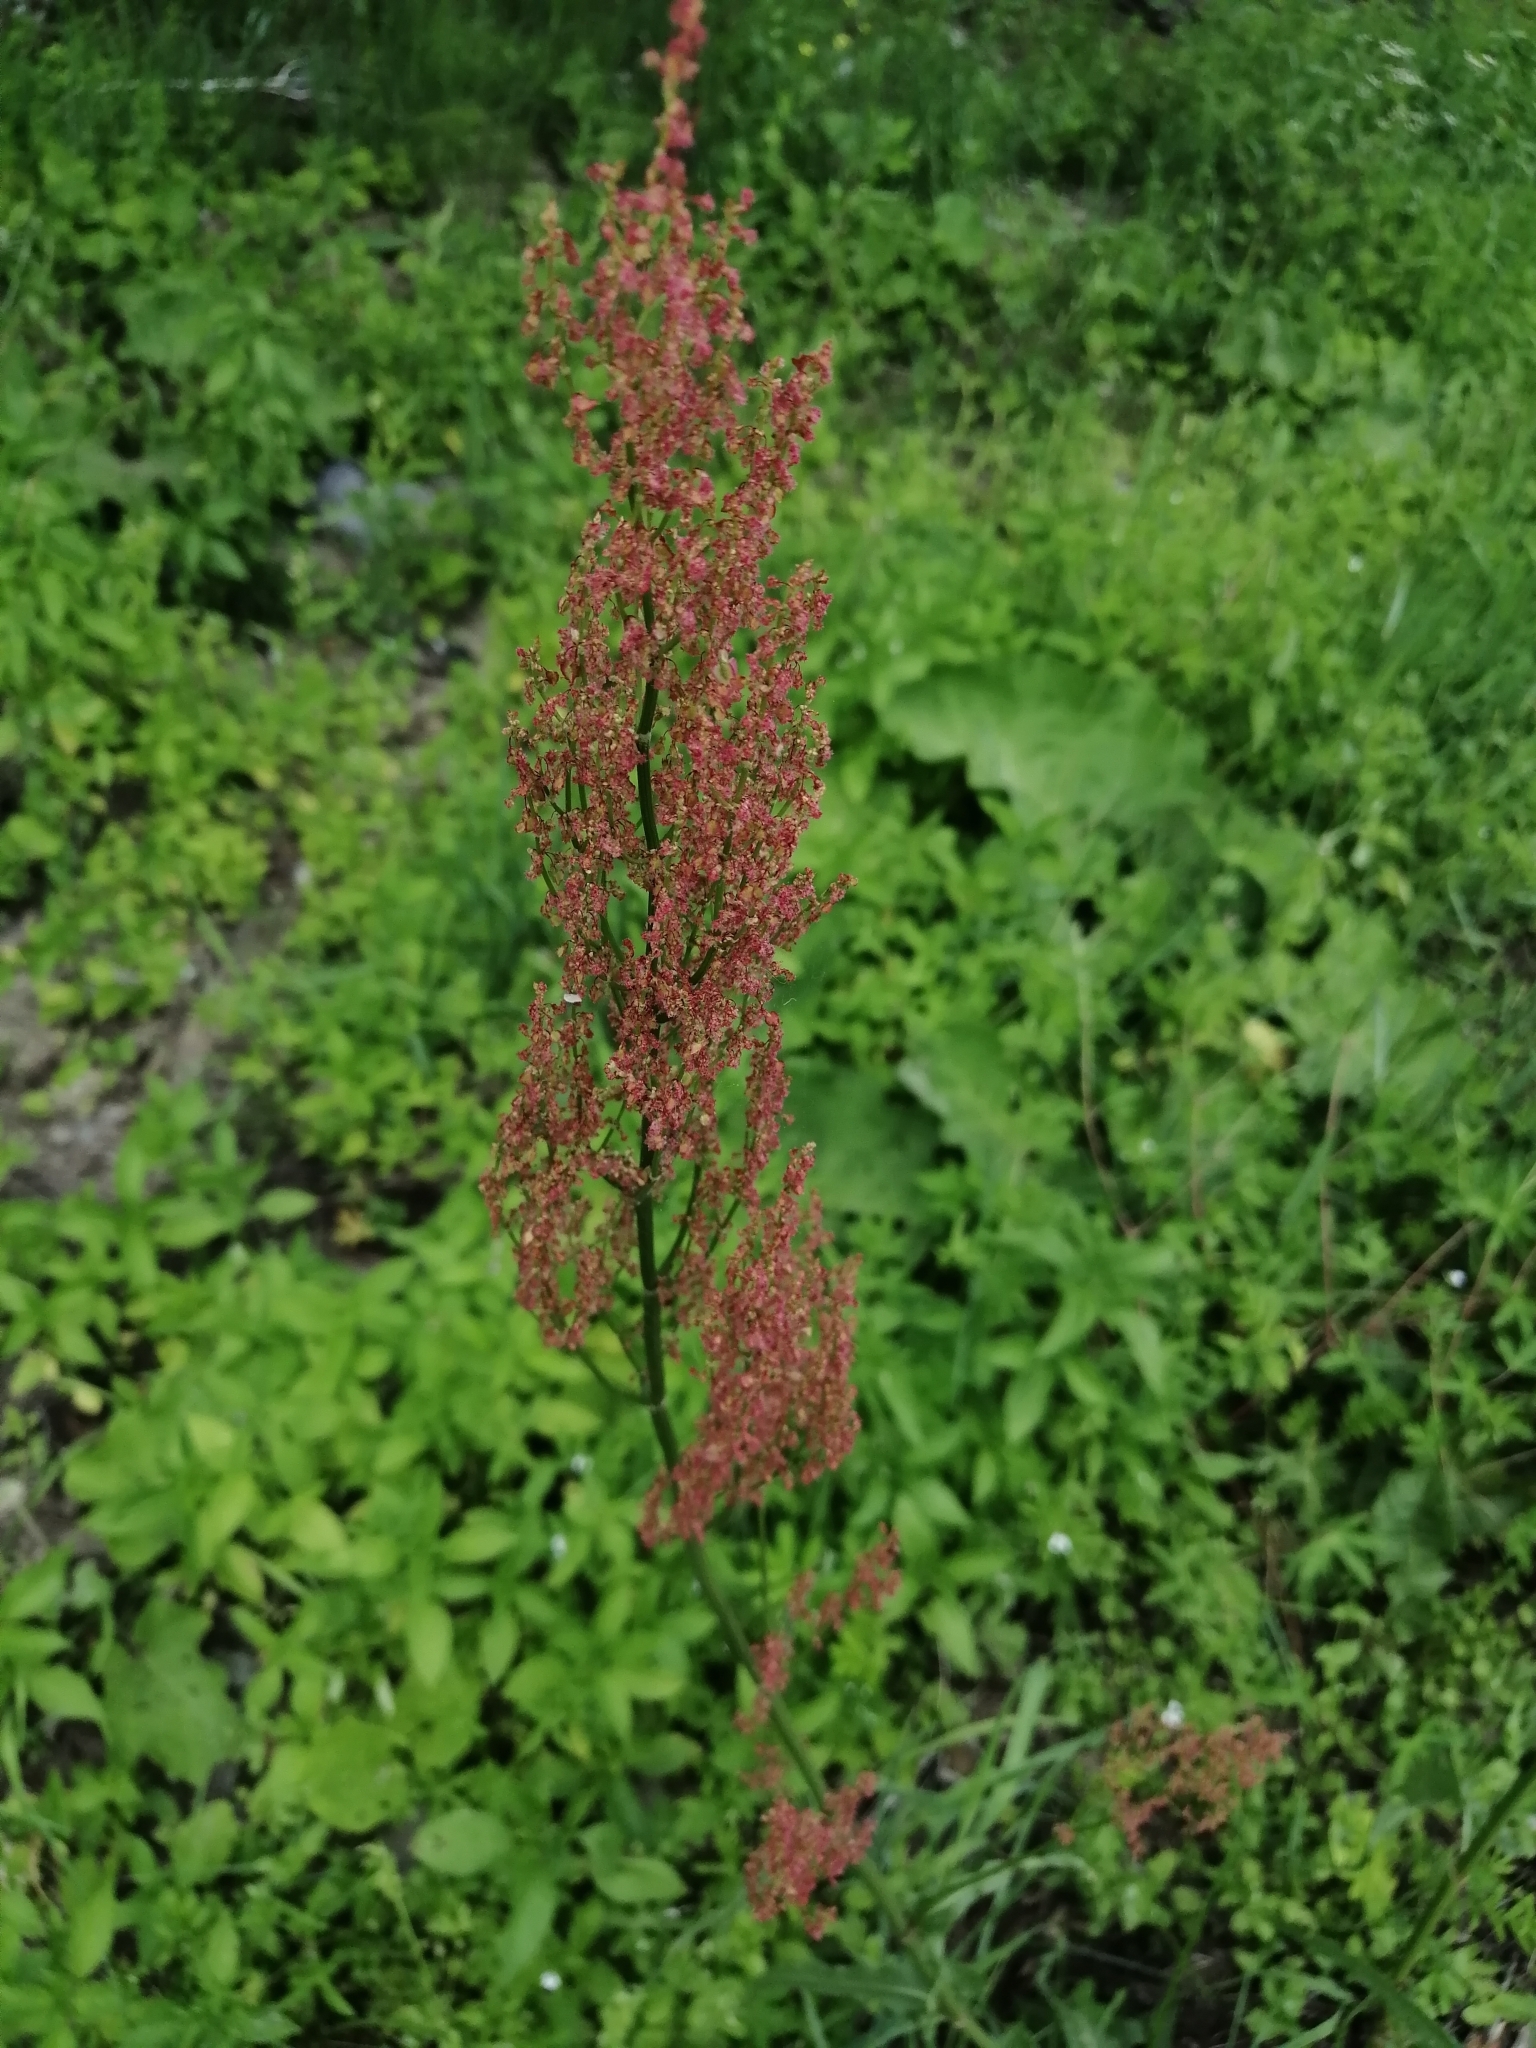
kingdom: Plantae
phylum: Tracheophyta
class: Magnoliopsida
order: Caryophyllales
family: Polygonaceae
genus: Rumex
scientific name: Rumex thyrsiflorus
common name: Garden sorrel
